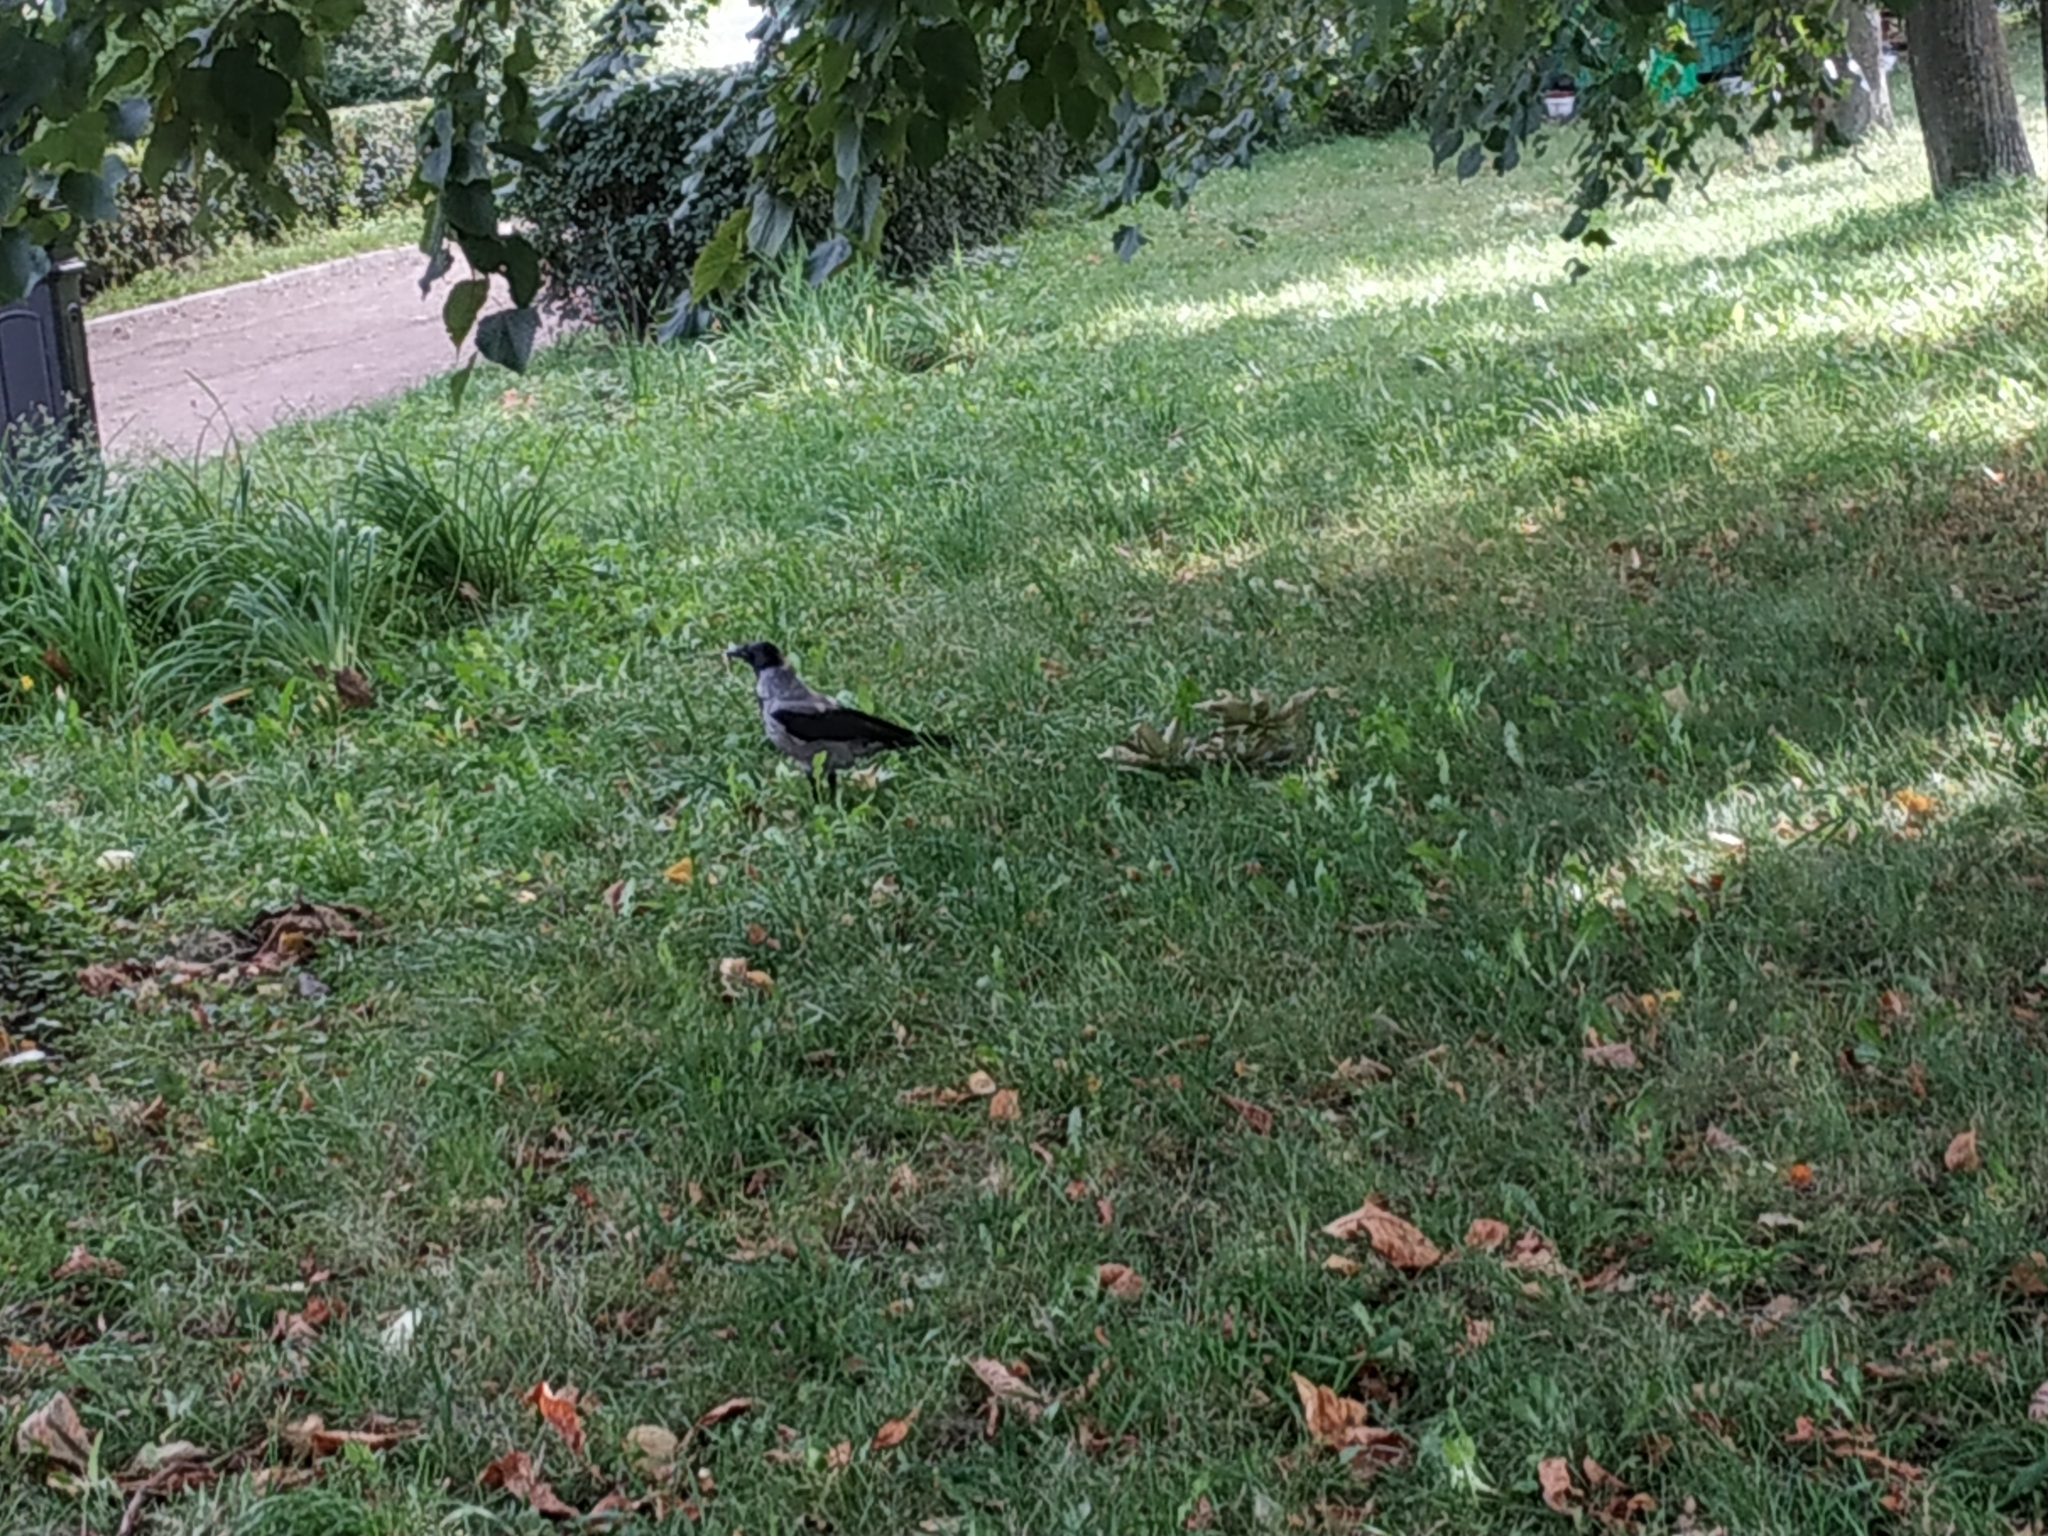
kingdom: Animalia
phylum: Chordata
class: Aves
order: Passeriformes
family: Corvidae
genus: Corvus
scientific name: Corvus cornix
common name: Hooded crow
